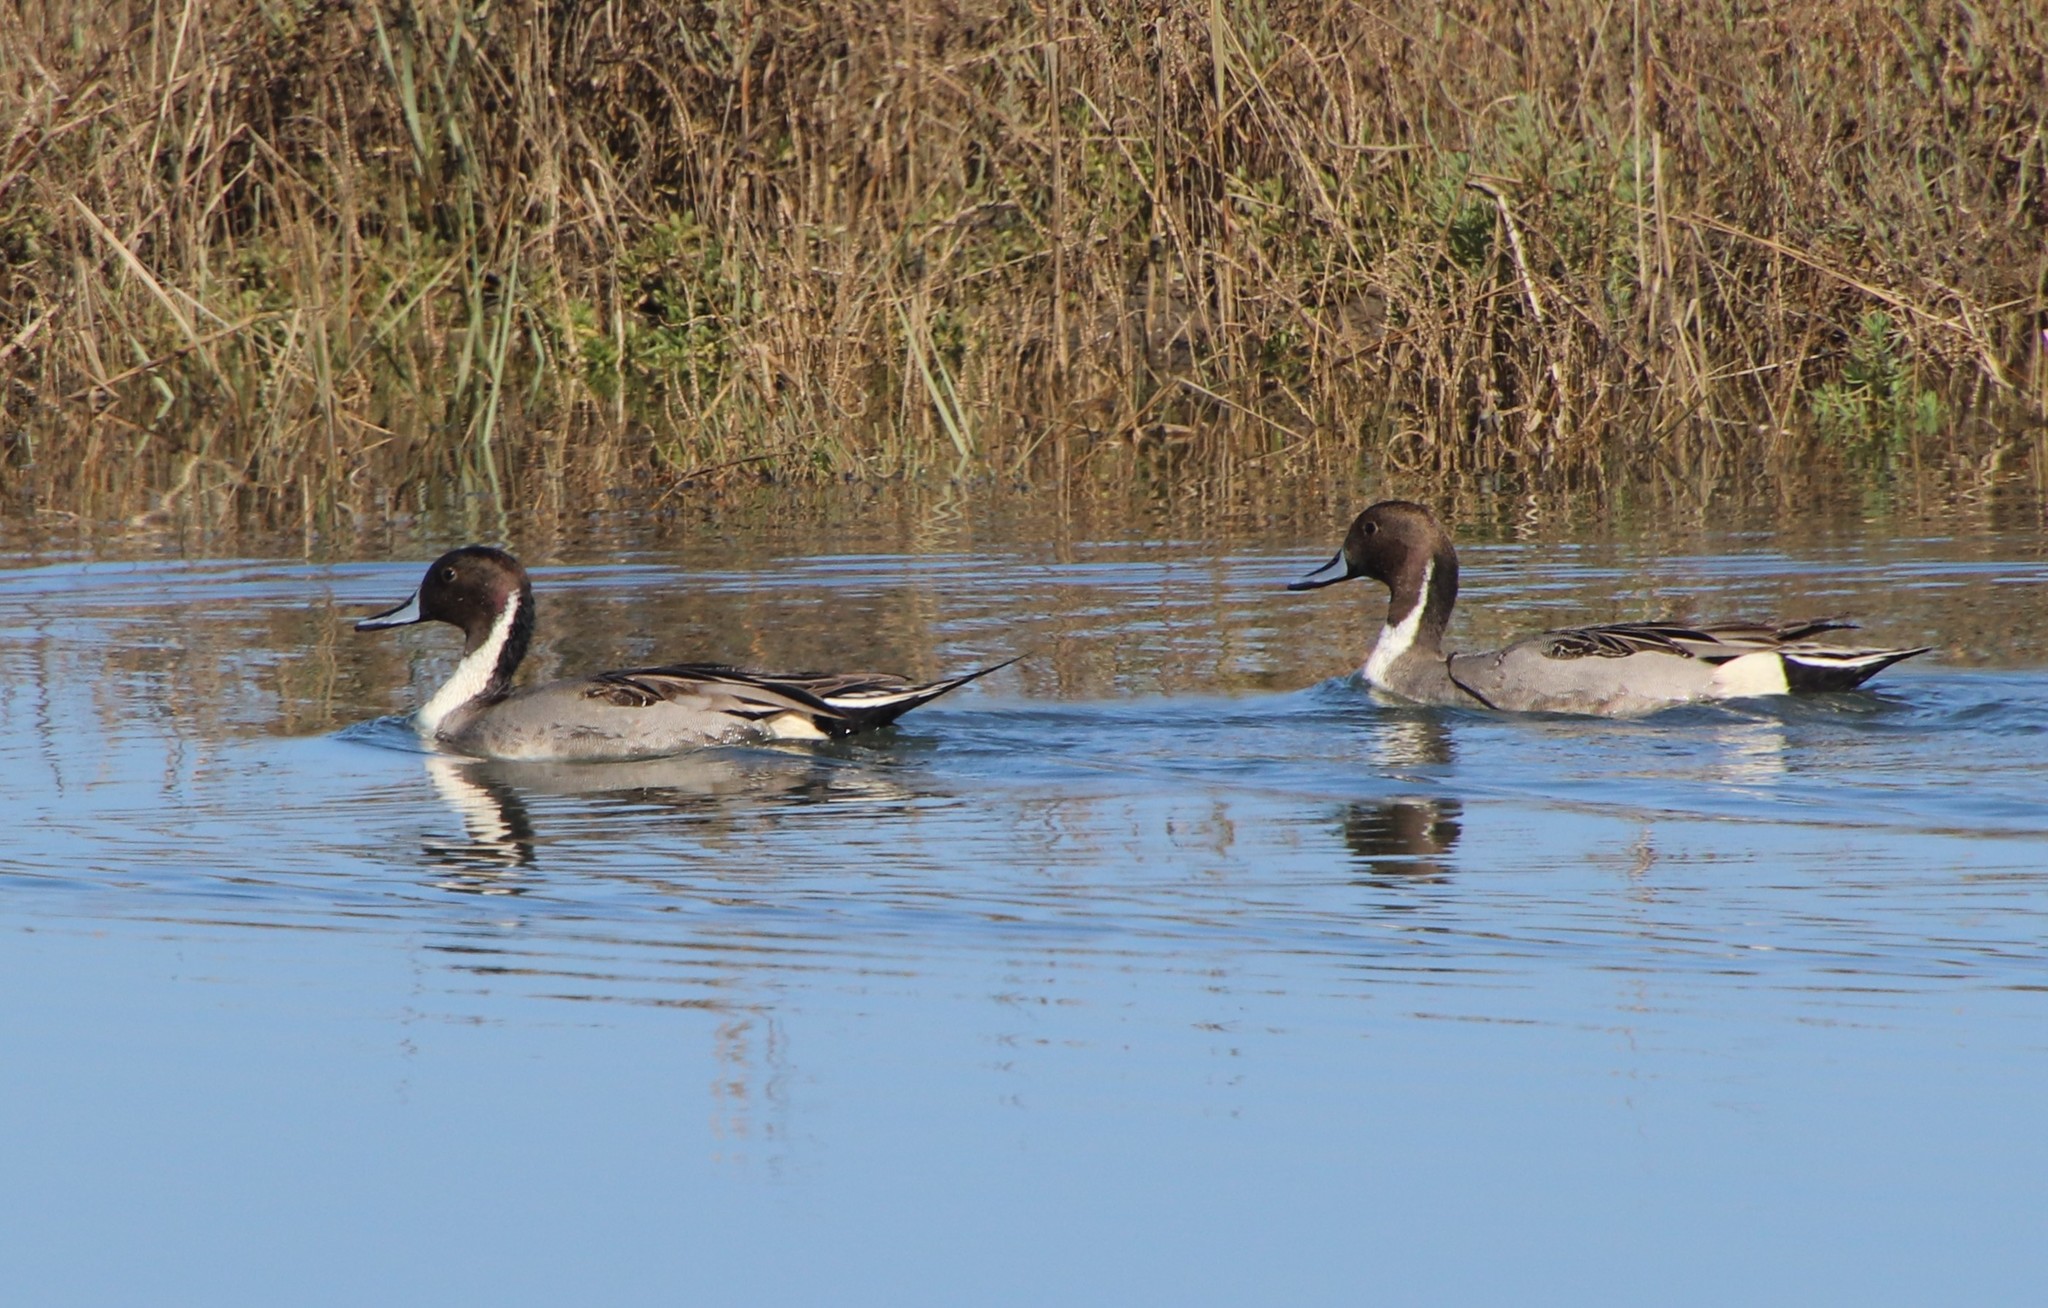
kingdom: Animalia
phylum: Chordata
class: Aves
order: Anseriformes
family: Anatidae
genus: Anas
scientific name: Anas acuta
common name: Northern pintail
